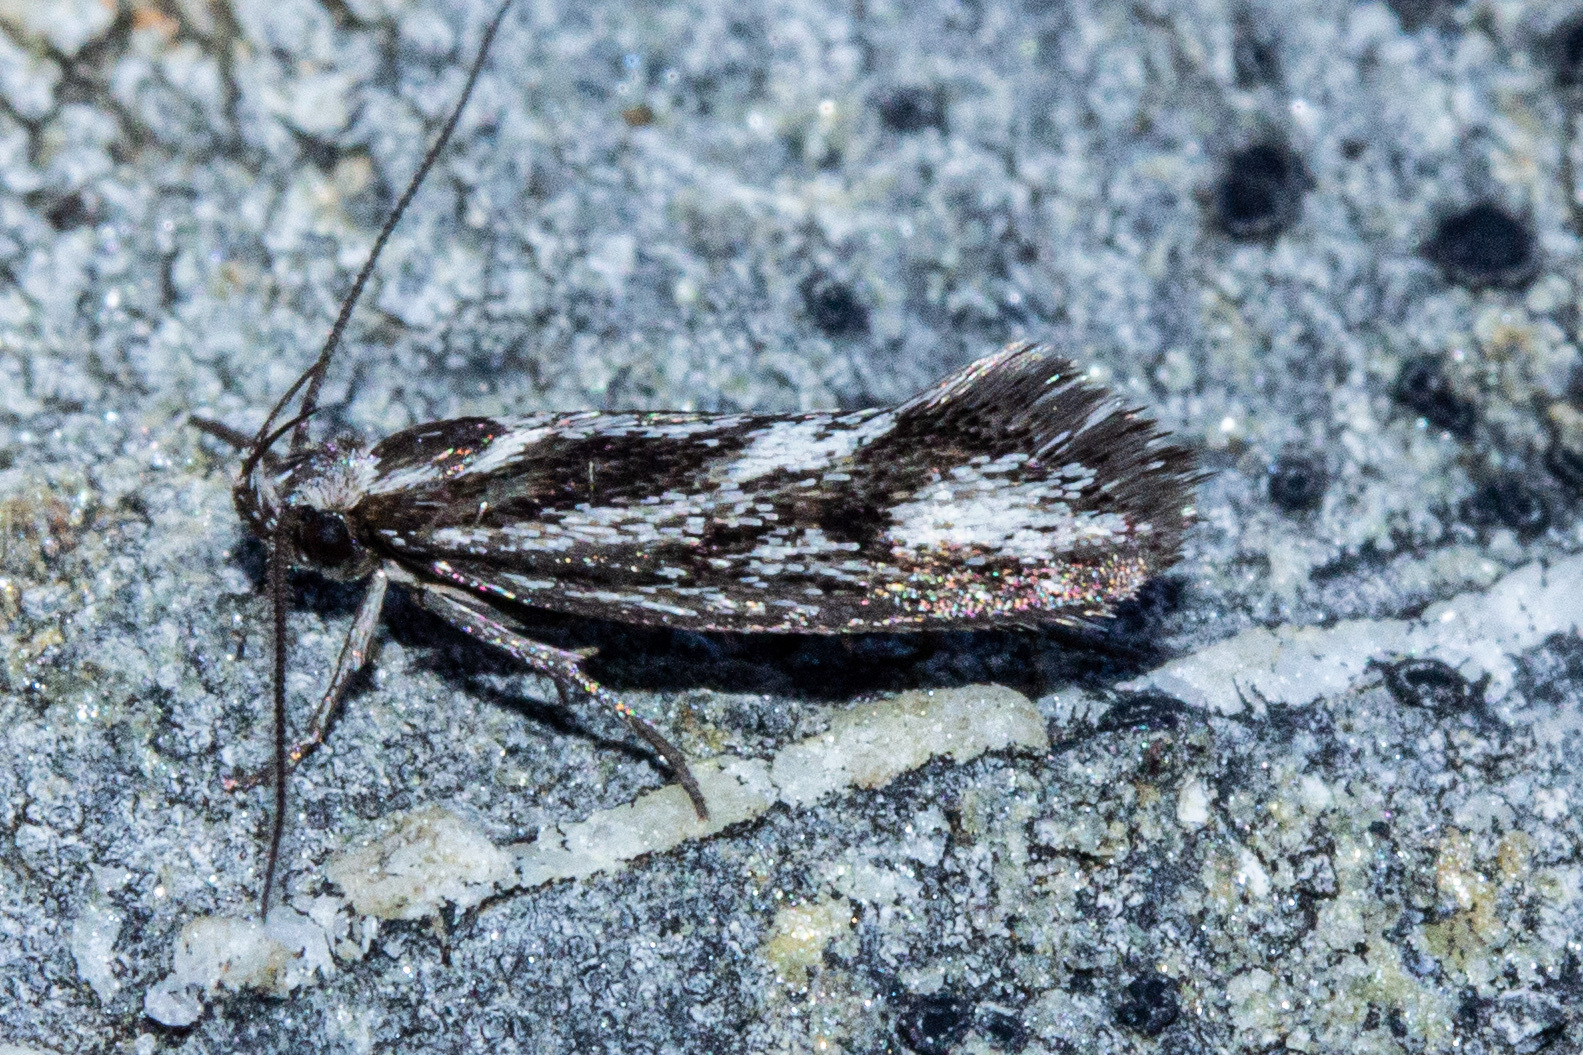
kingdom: Animalia
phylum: Arthropoda
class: Insecta
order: Lepidoptera
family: Oecophoridae
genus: Prepalla
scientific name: Prepalla
